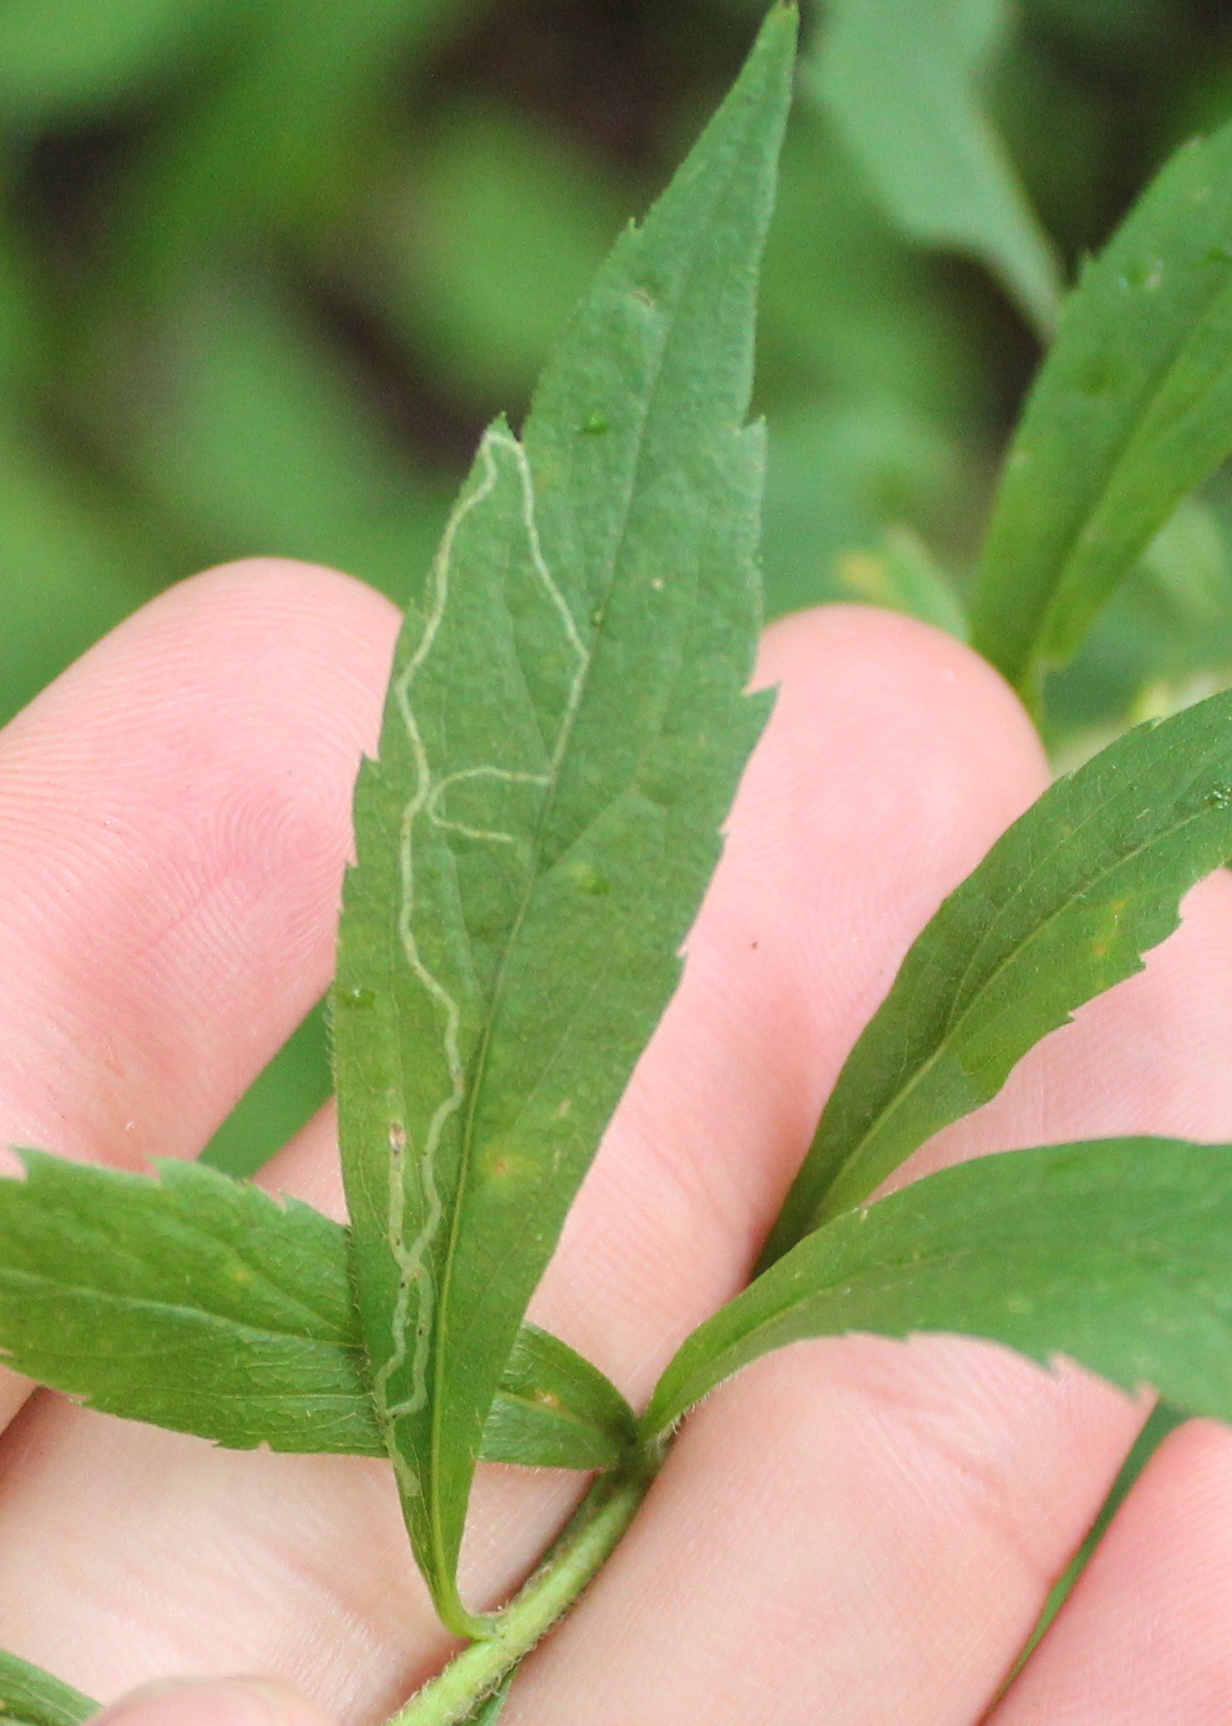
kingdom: Animalia
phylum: Arthropoda
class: Insecta
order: Diptera
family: Agromyzidae
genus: Ophiomyia
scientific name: Ophiomyia maura
